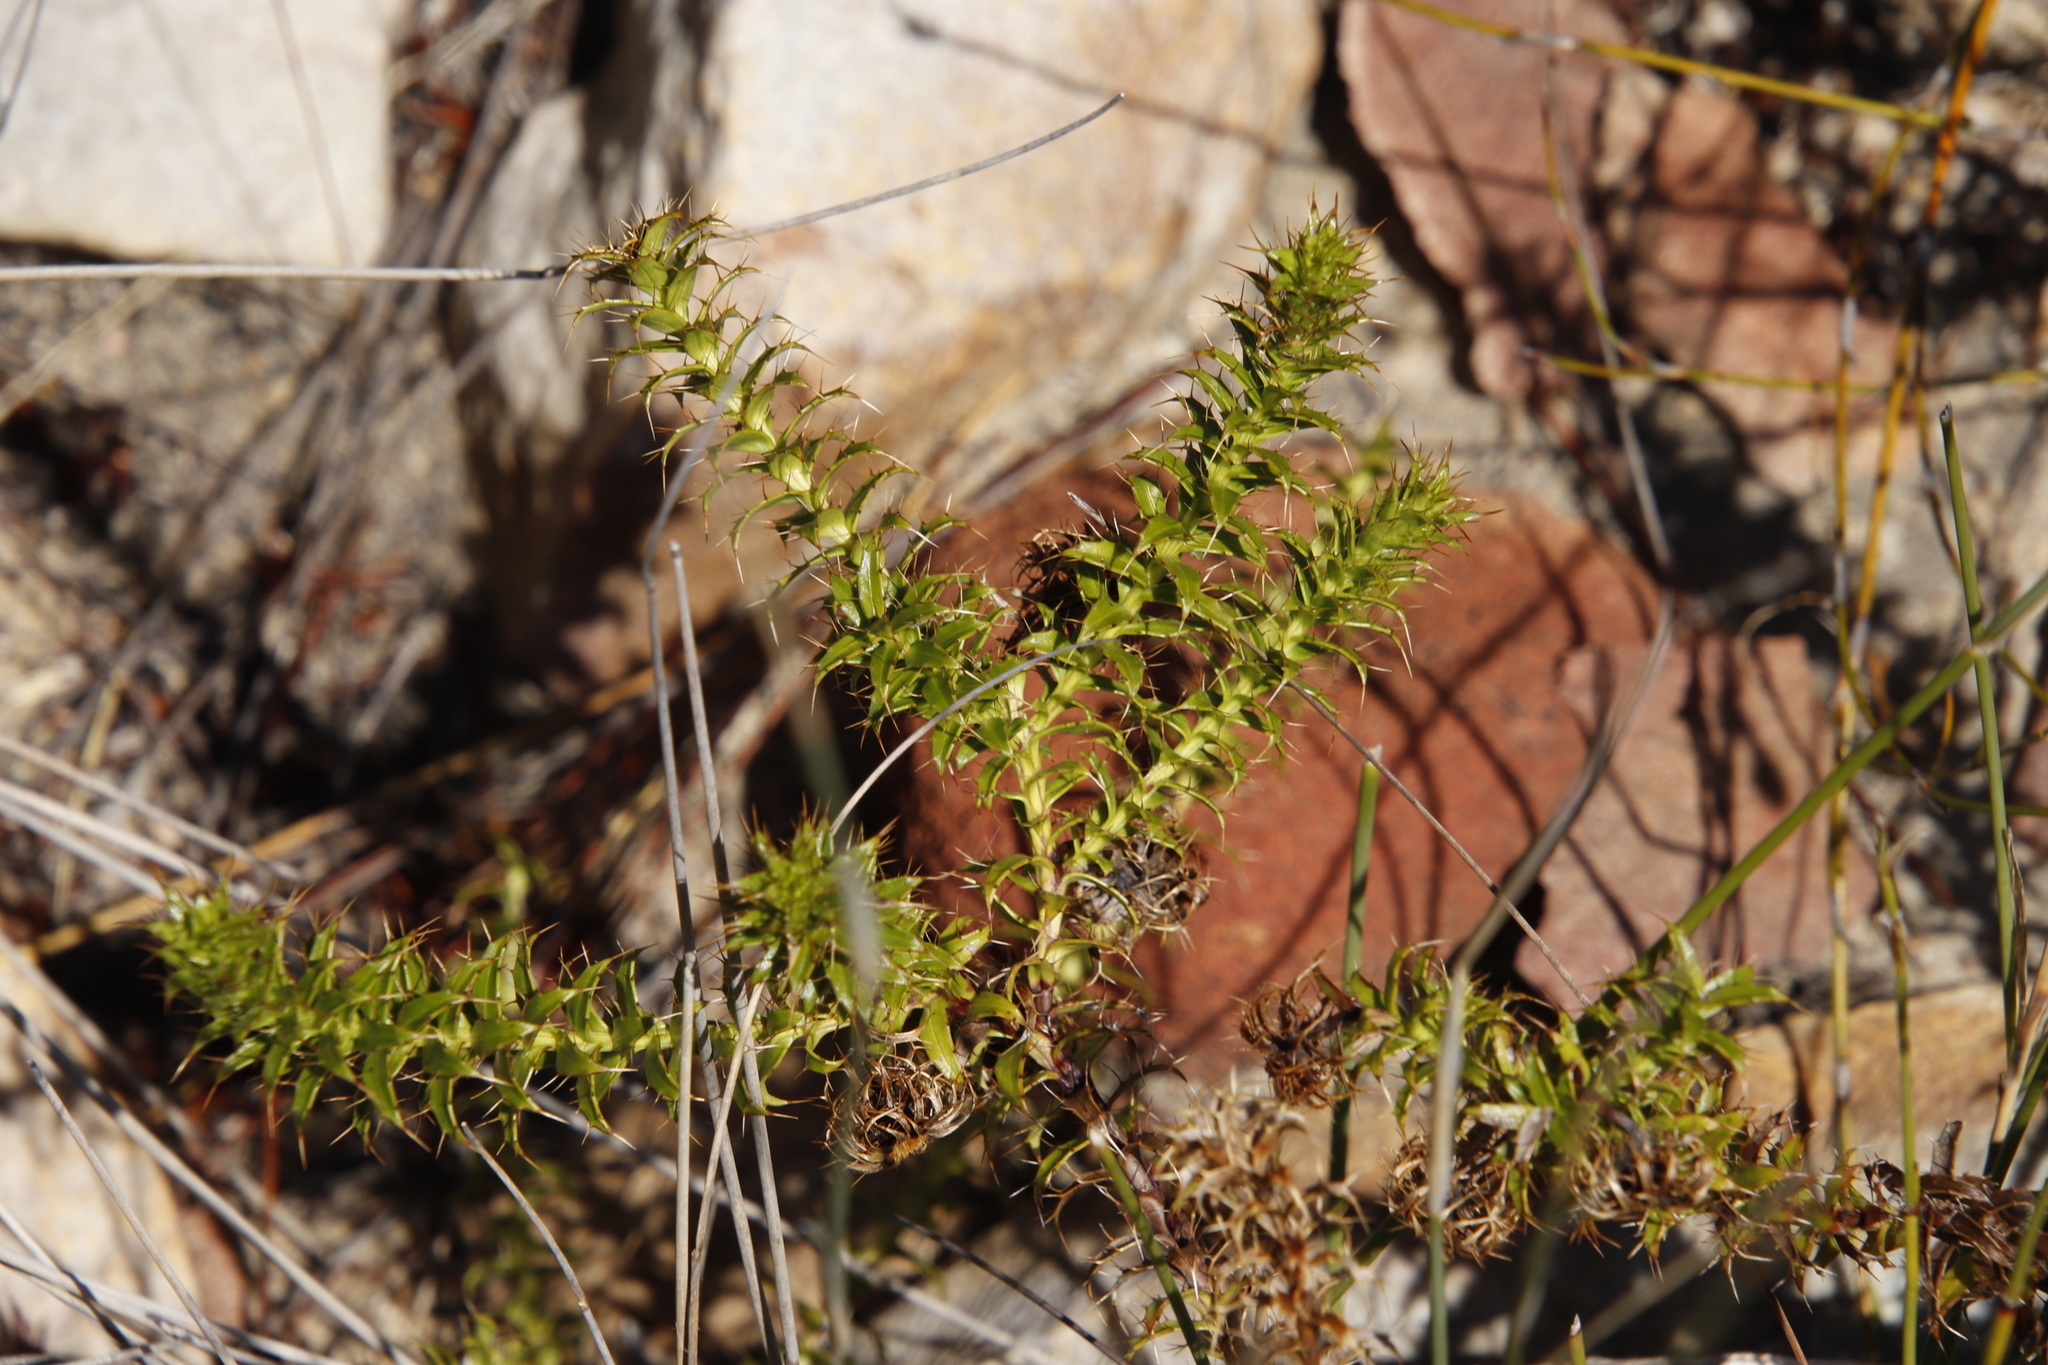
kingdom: Plantae
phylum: Tracheophyta
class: Magnoliopsida
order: Asterales
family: Asteraceae
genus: Cullumia
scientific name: Cullumia setosa
